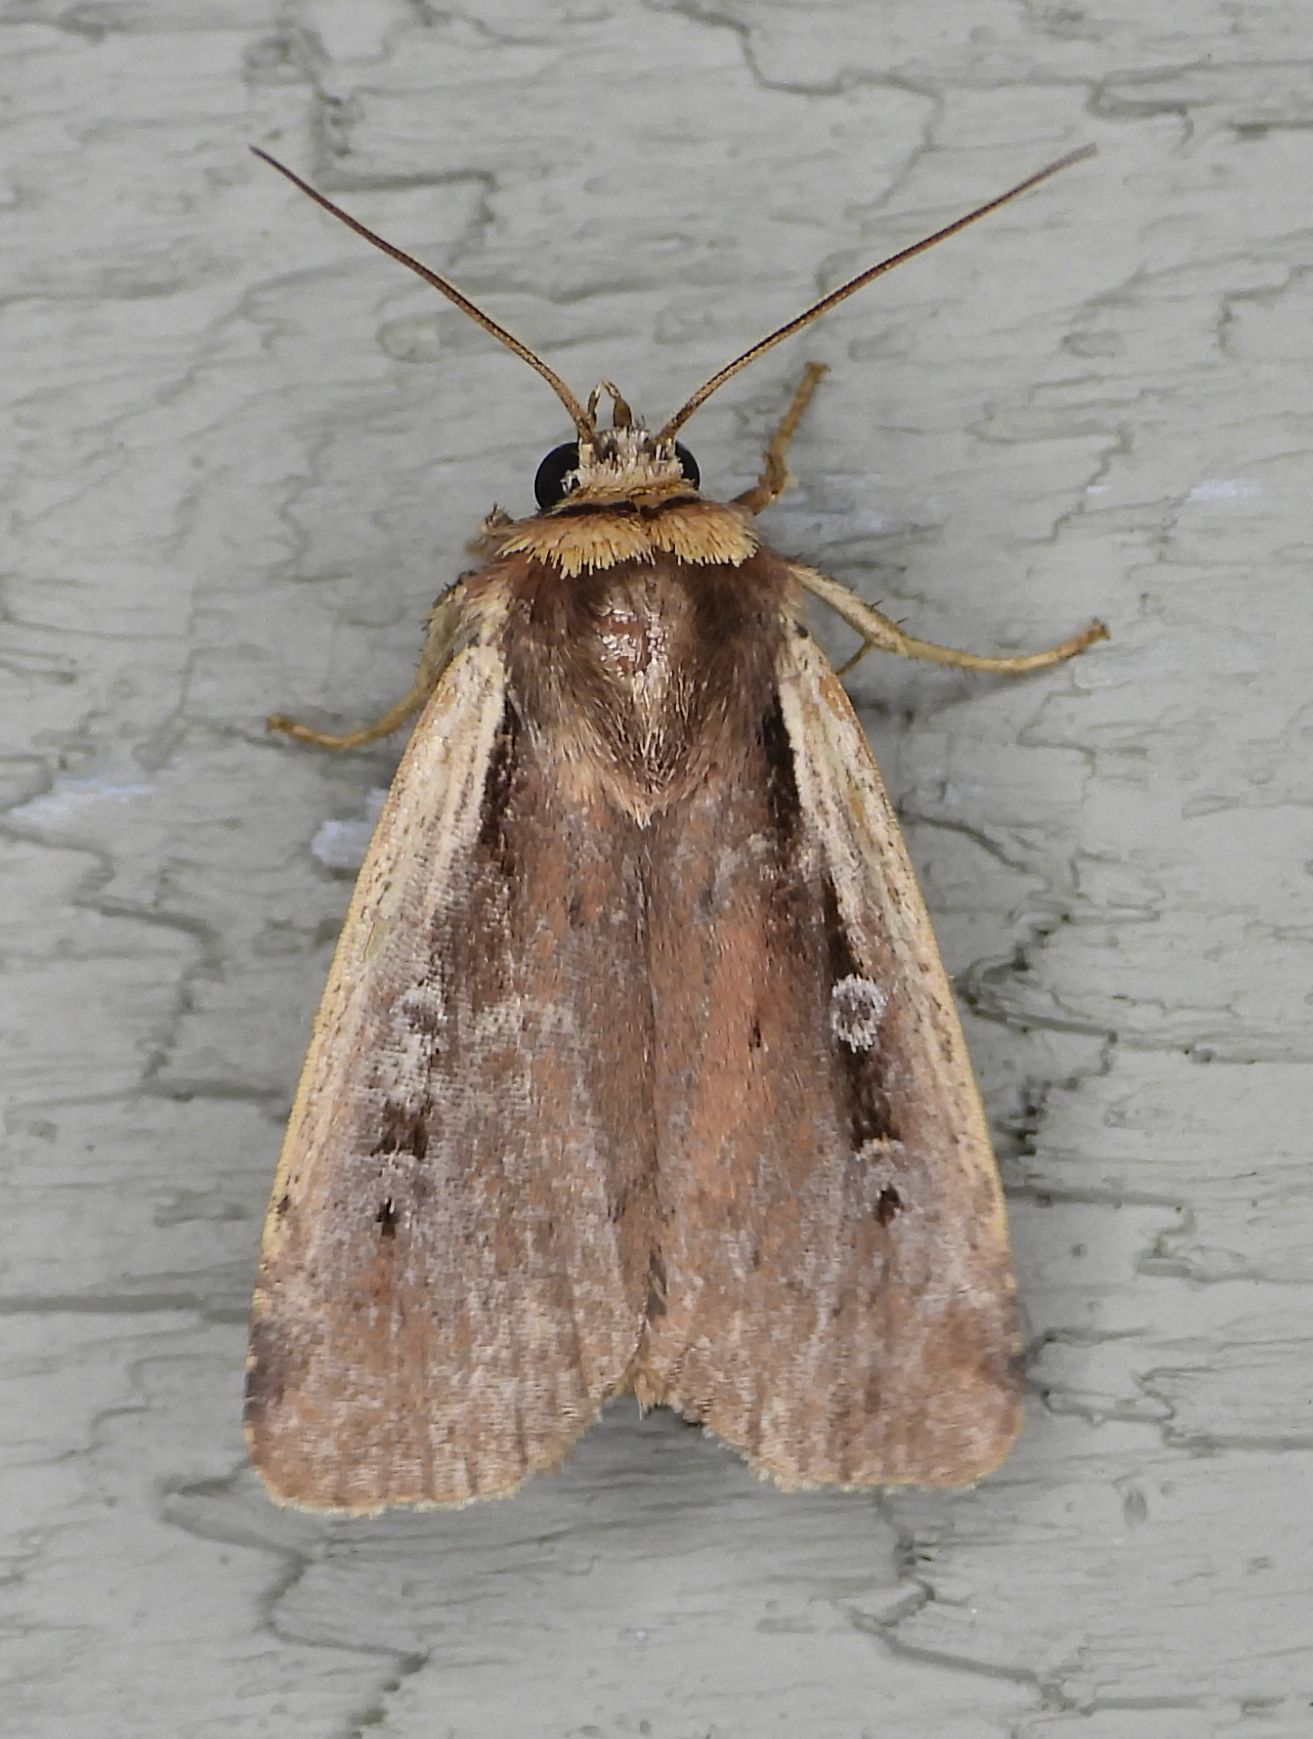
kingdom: Animalia
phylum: Arthropoda
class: Insecta
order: Lepidoptera
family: Noctuidae
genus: Ochropleura
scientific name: Ochropleura implecta
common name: Flame-shouldered dart
